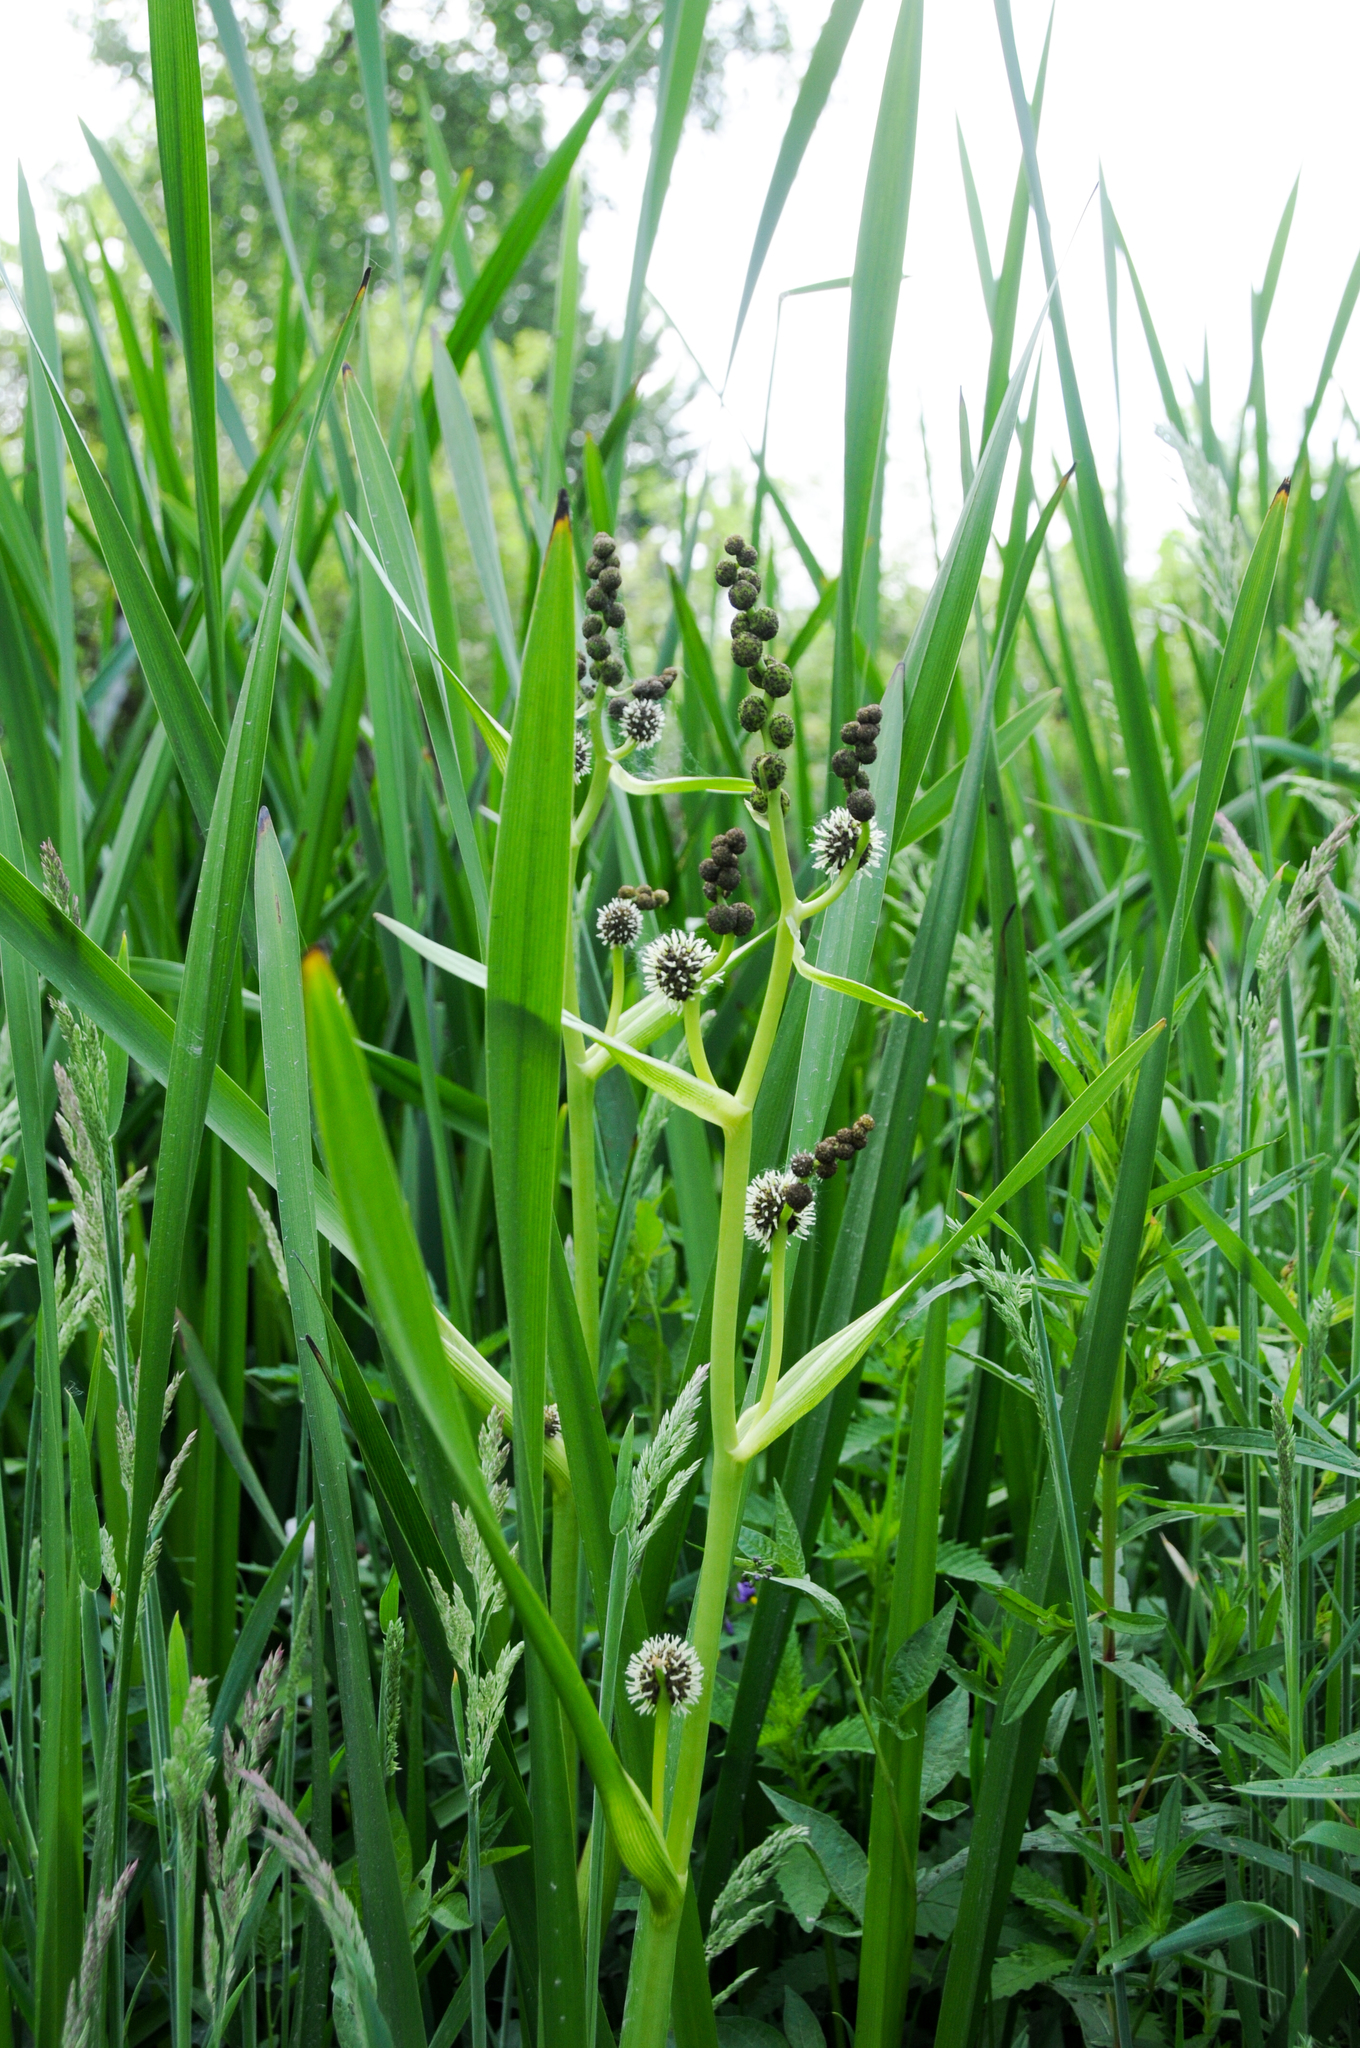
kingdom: Plantae
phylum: Tracheophyta
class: Liliopsida
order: Poales
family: Typhaceae
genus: Sparganium
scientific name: Sparganium eurycarpum
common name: Broad-fruited burreed
